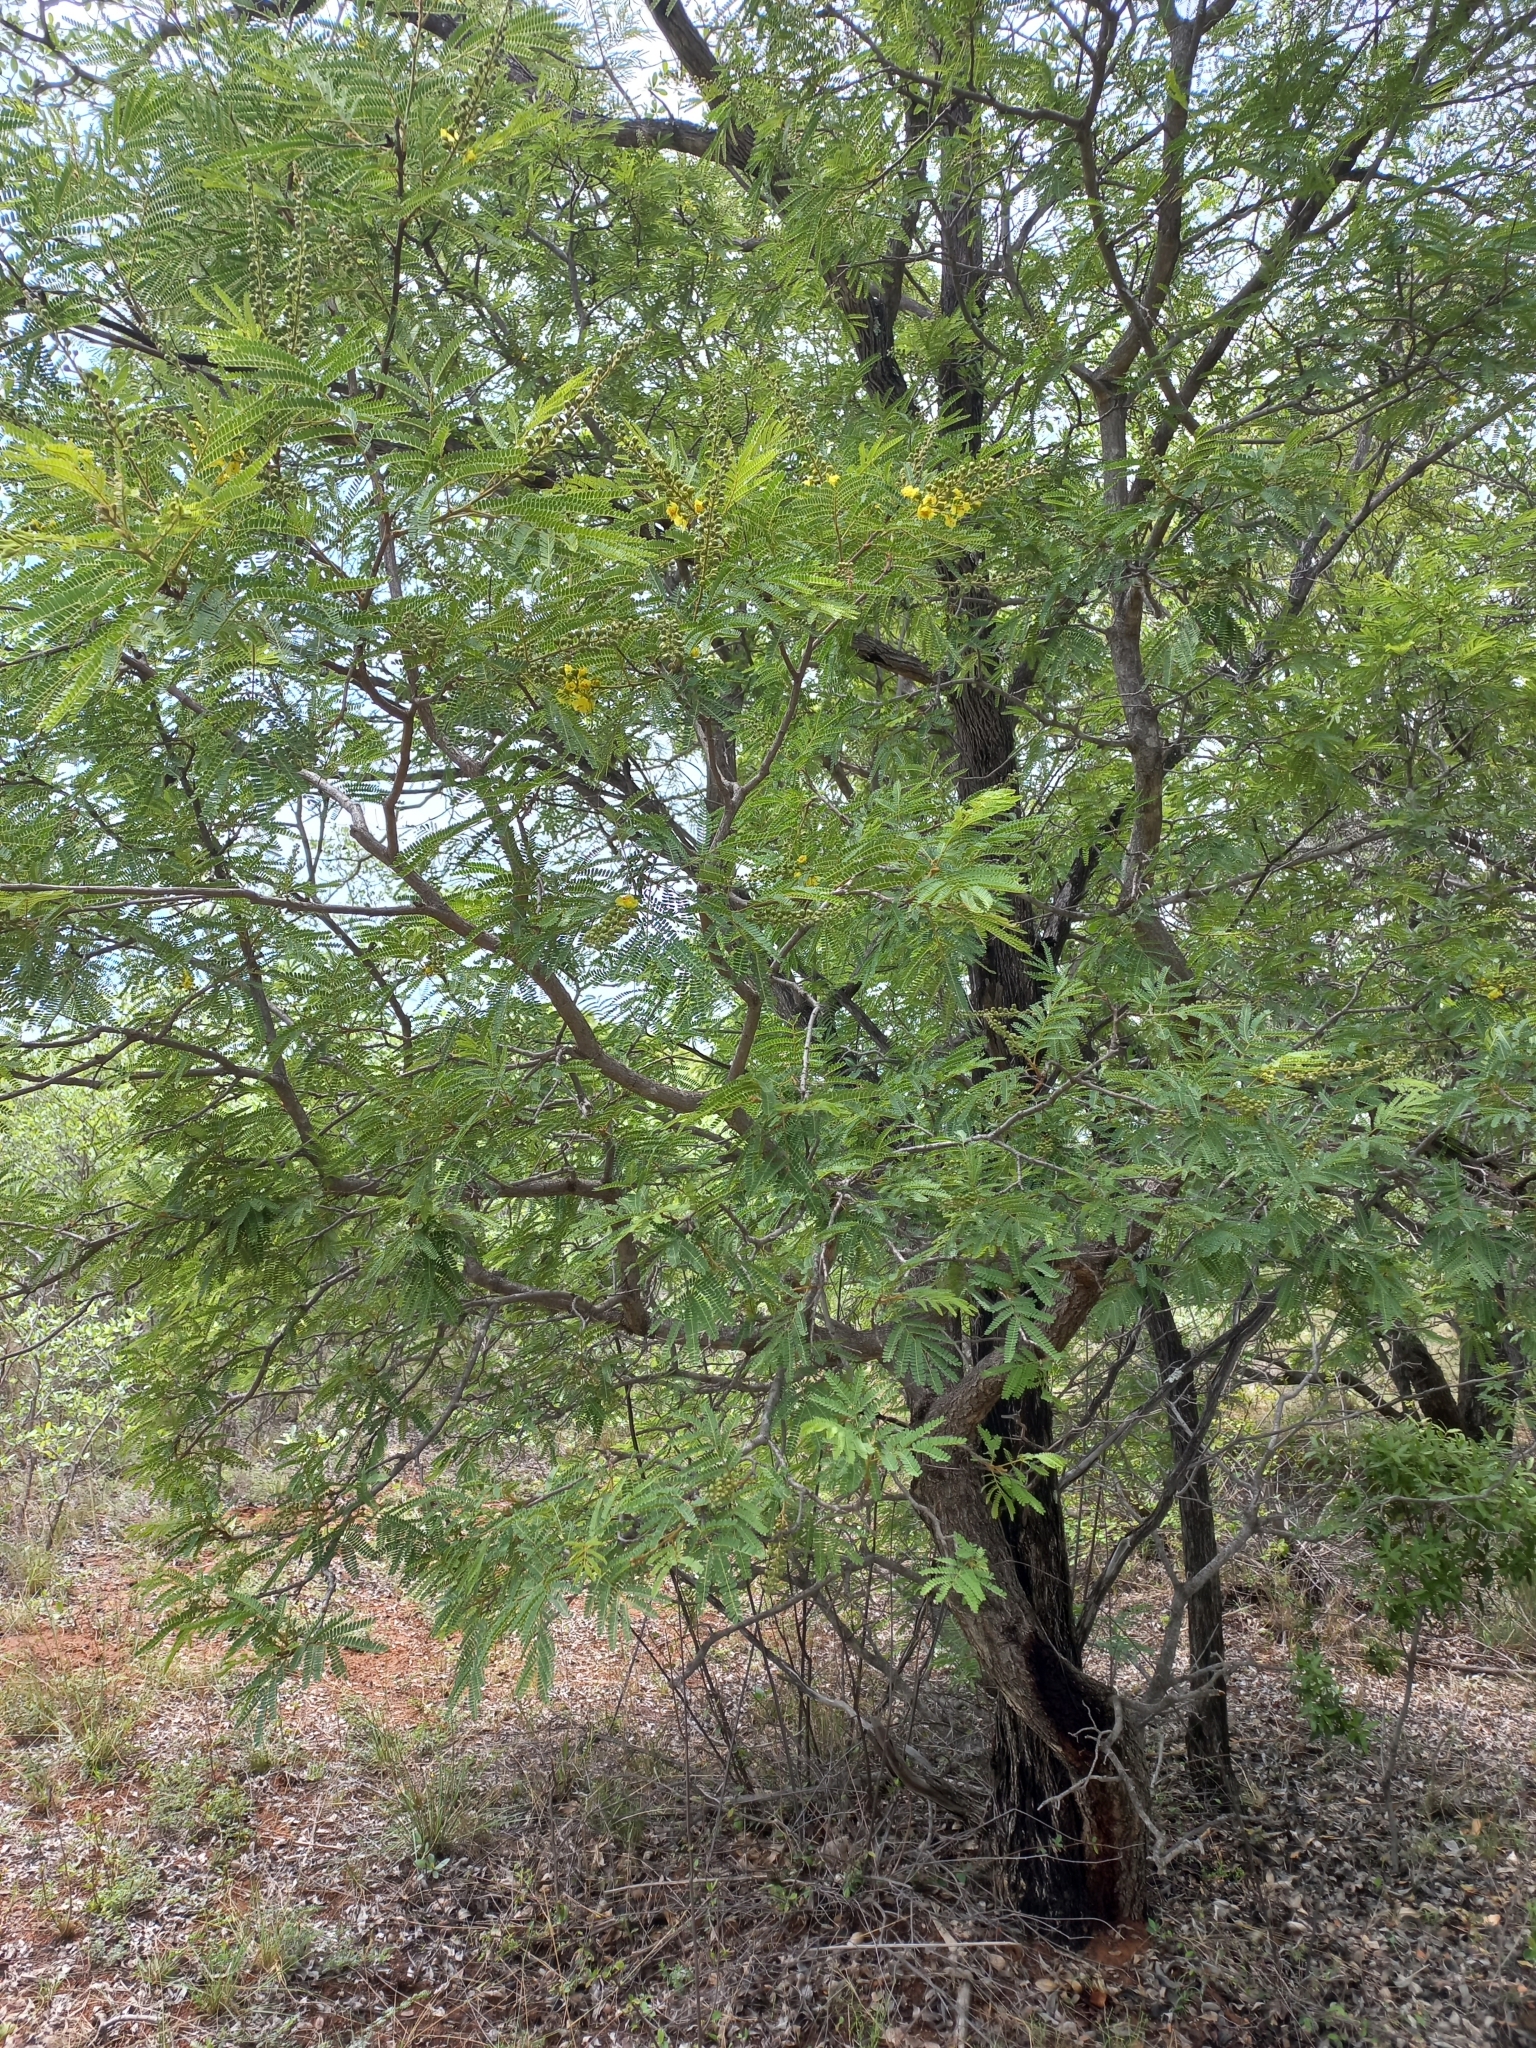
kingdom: Plantae
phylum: Tracheophyta
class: Magnoliopsida
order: Fabales
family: Fabaceae
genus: Peltophorum
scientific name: Peltophorum africanum
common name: African black wattle
